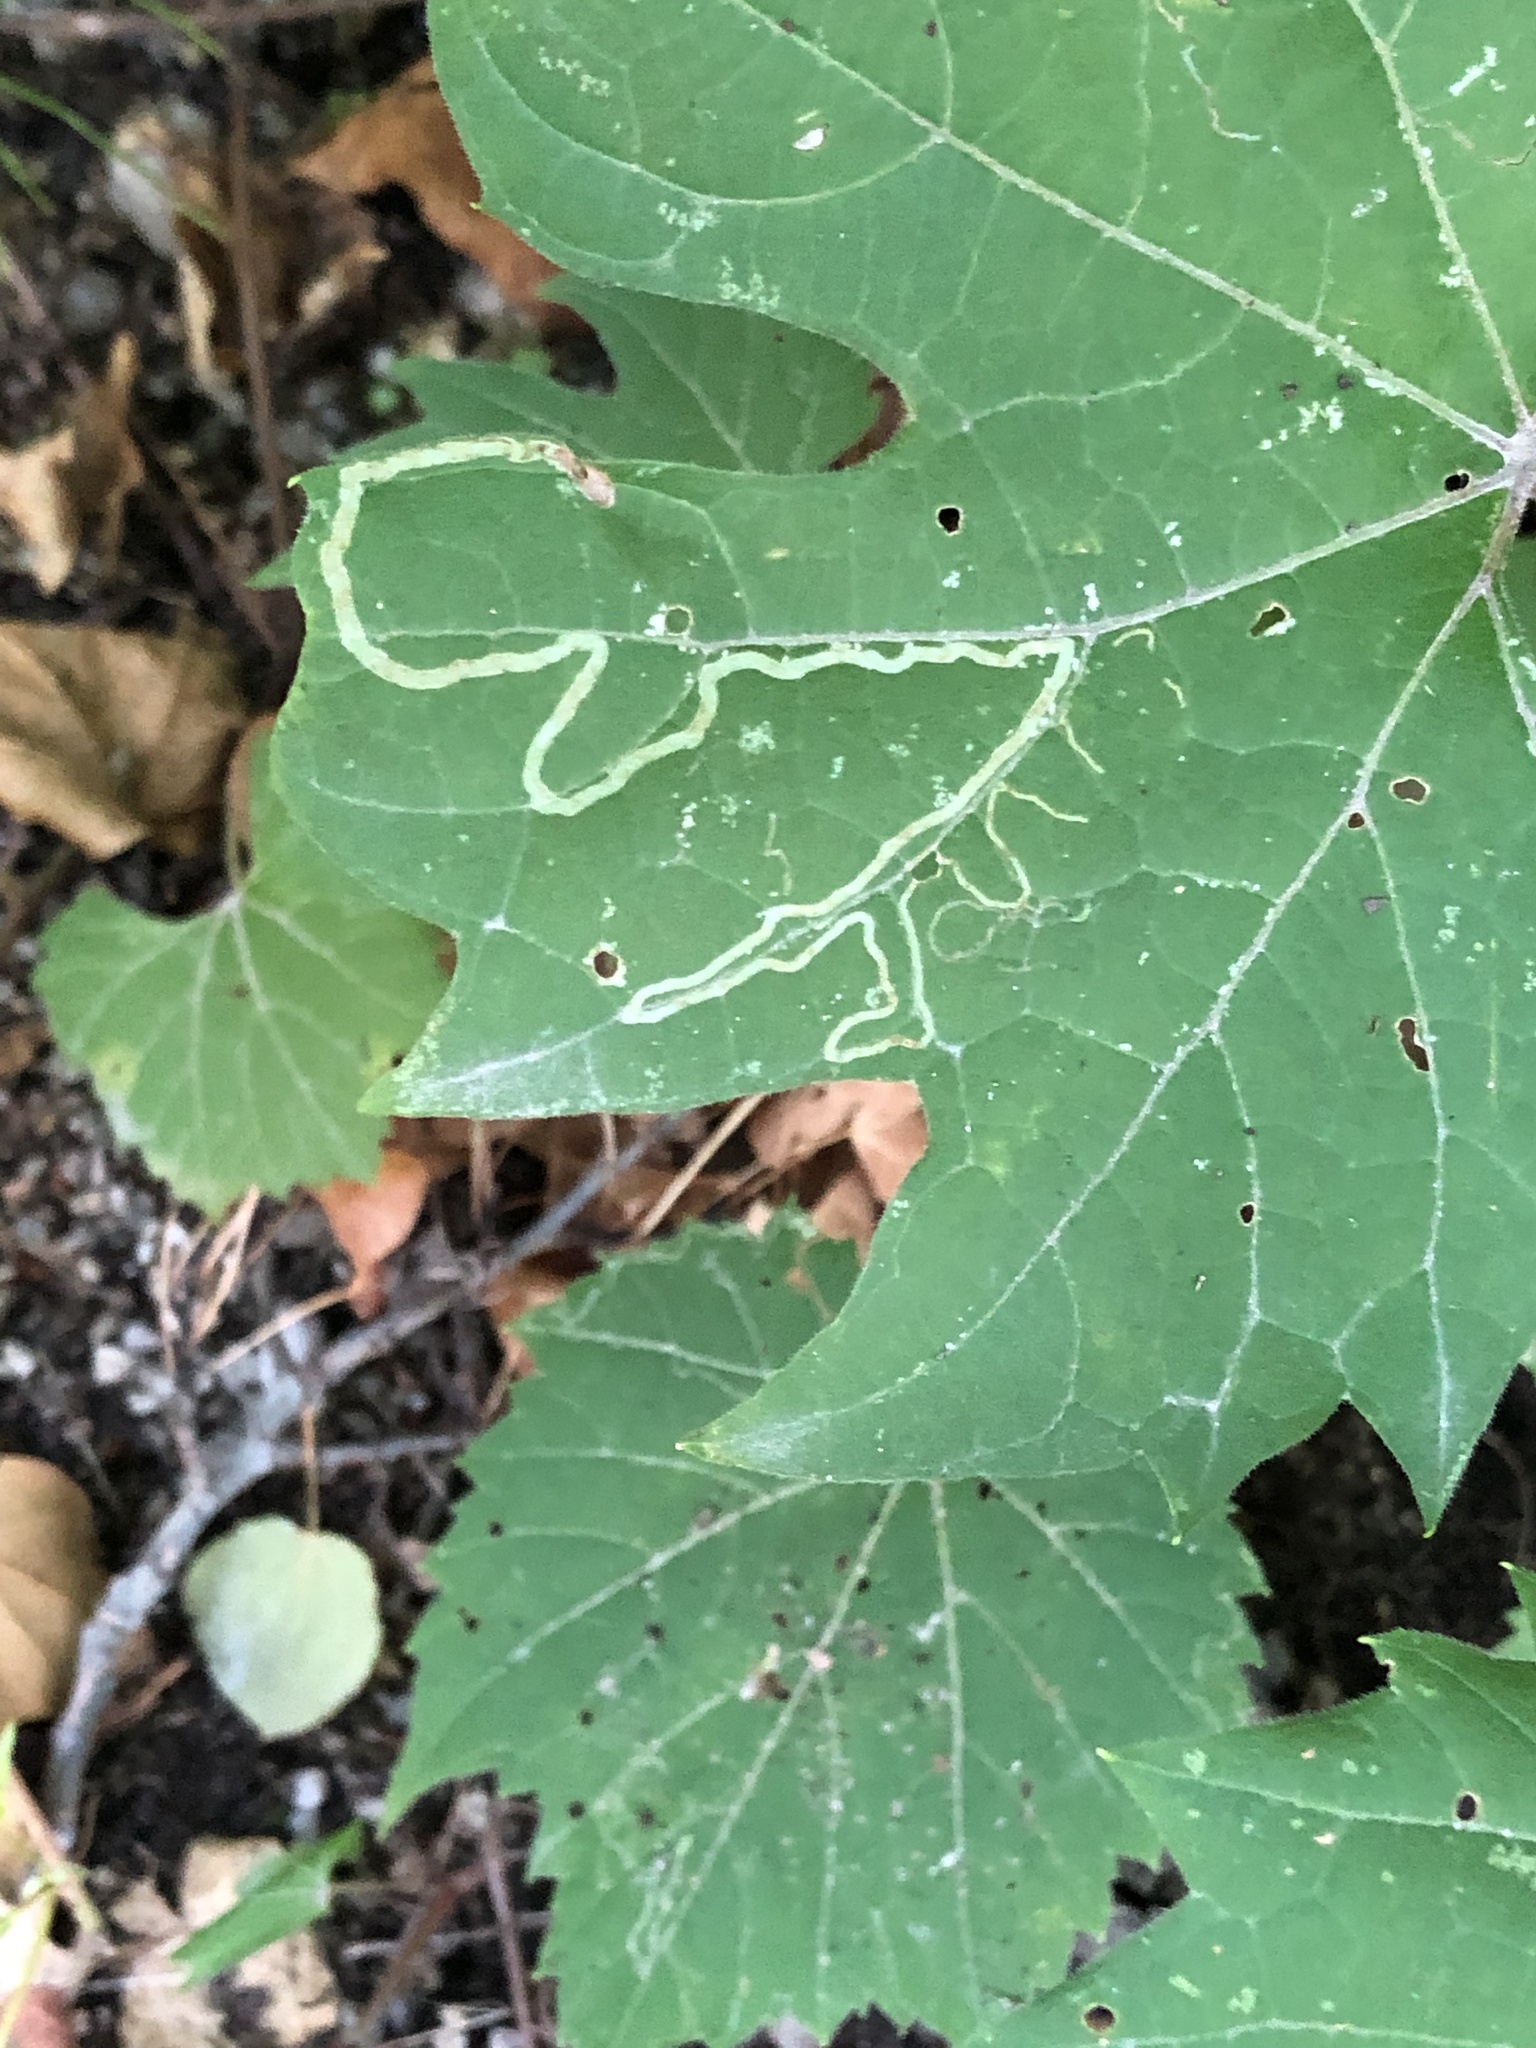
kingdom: Animalia
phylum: Arthropoda
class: Insecta
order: Lepidoptera
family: Gracillariidae
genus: Phyllocnistis
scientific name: Phyllocnistis vitifoliella
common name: Grape leaf-miner moth
